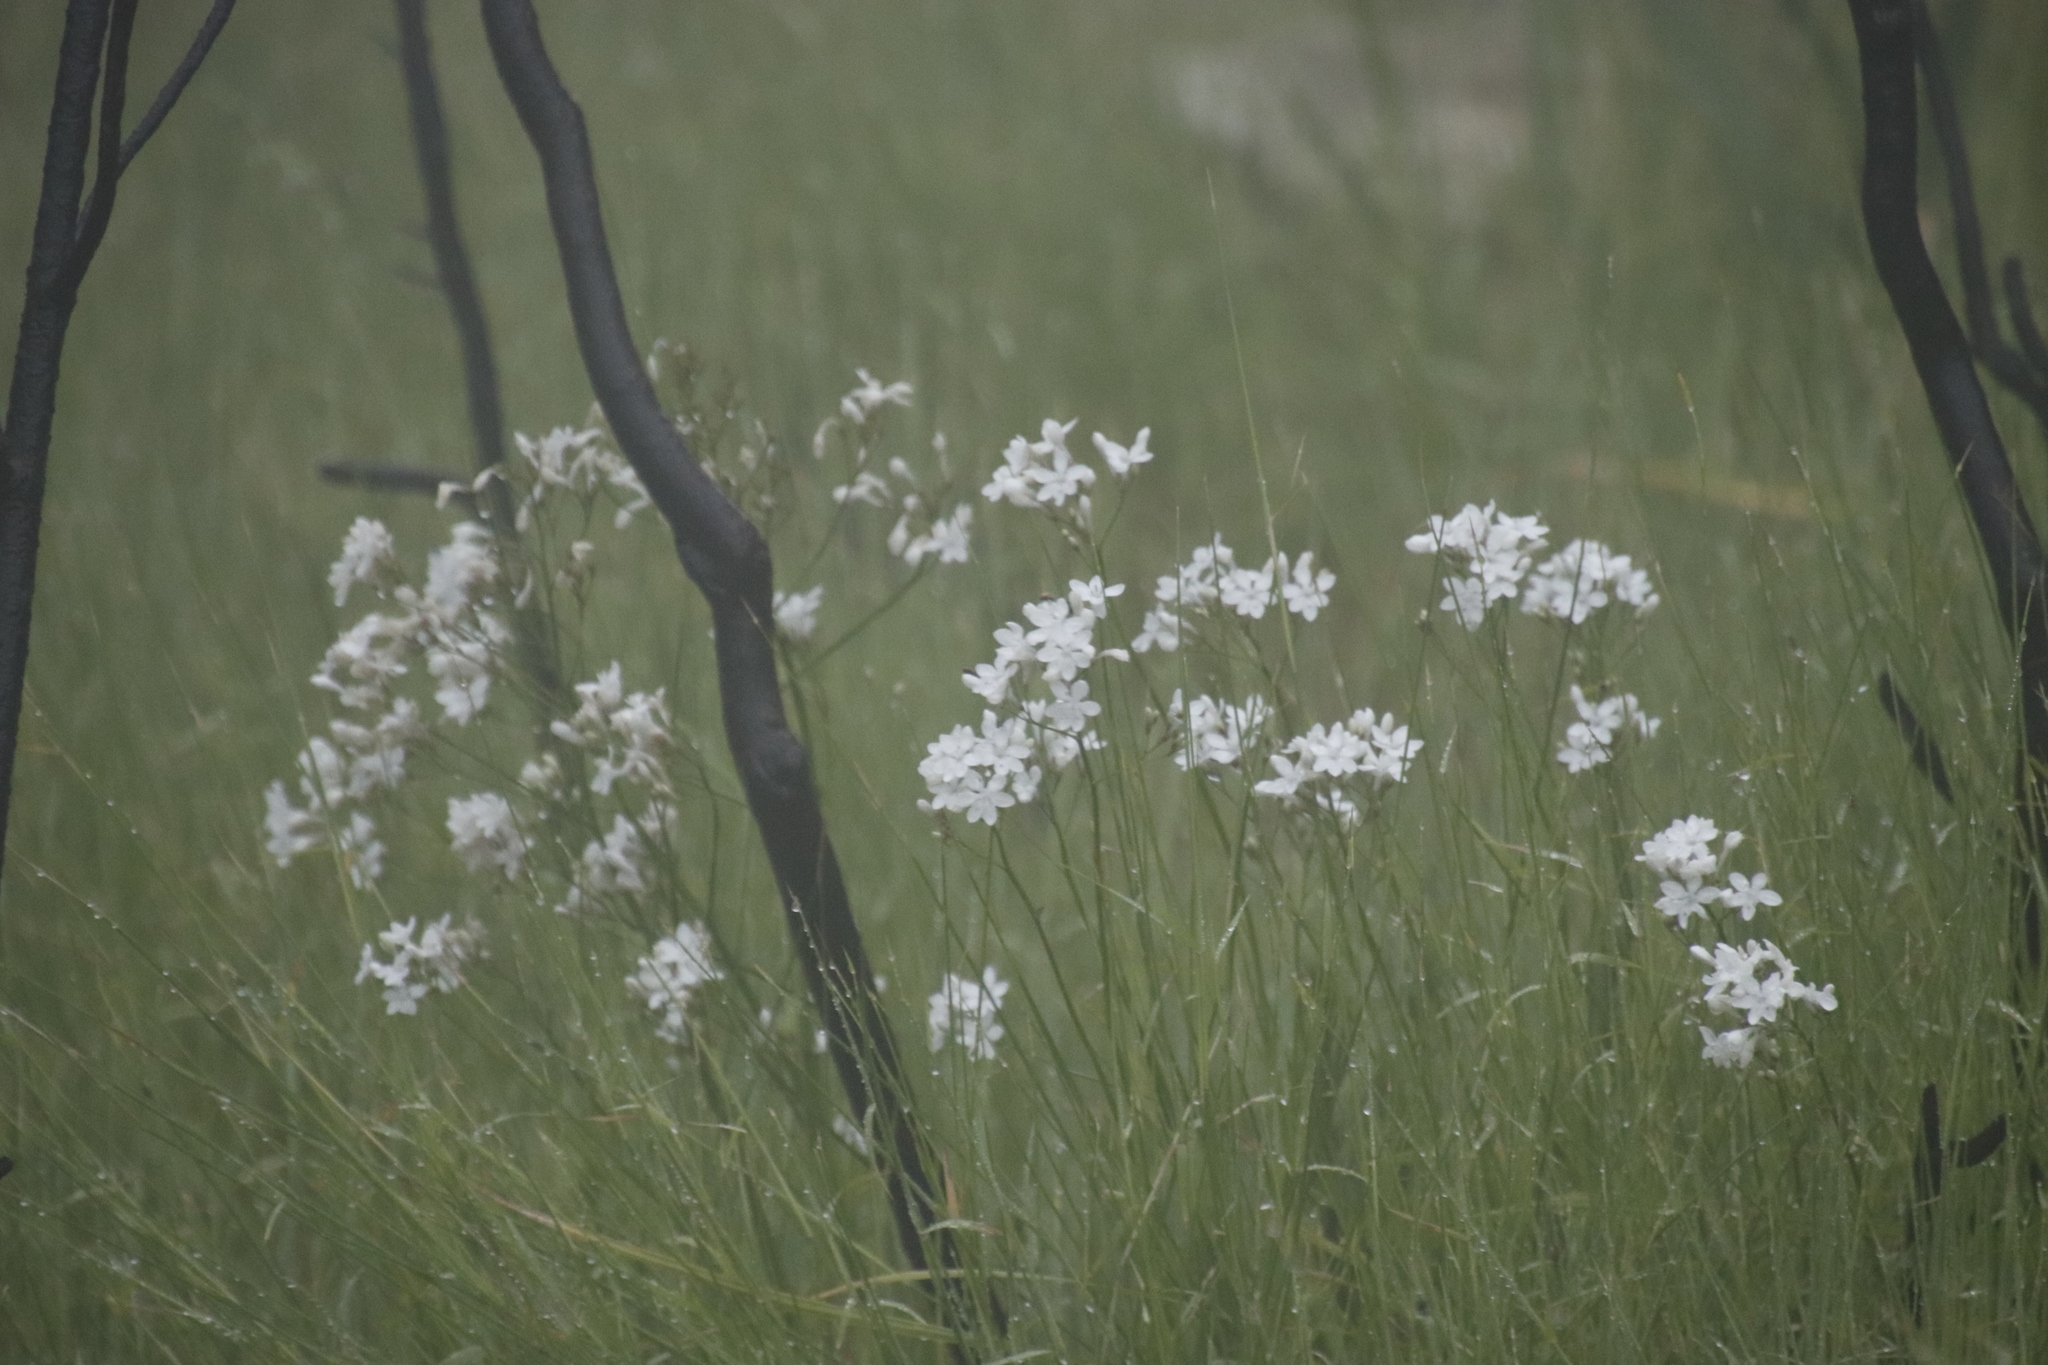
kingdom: Plantae
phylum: Tracheophyta
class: Liliopsida
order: Asparagales
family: Iridaceae
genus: Schizorhiza
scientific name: Schizorhiza neglecta
